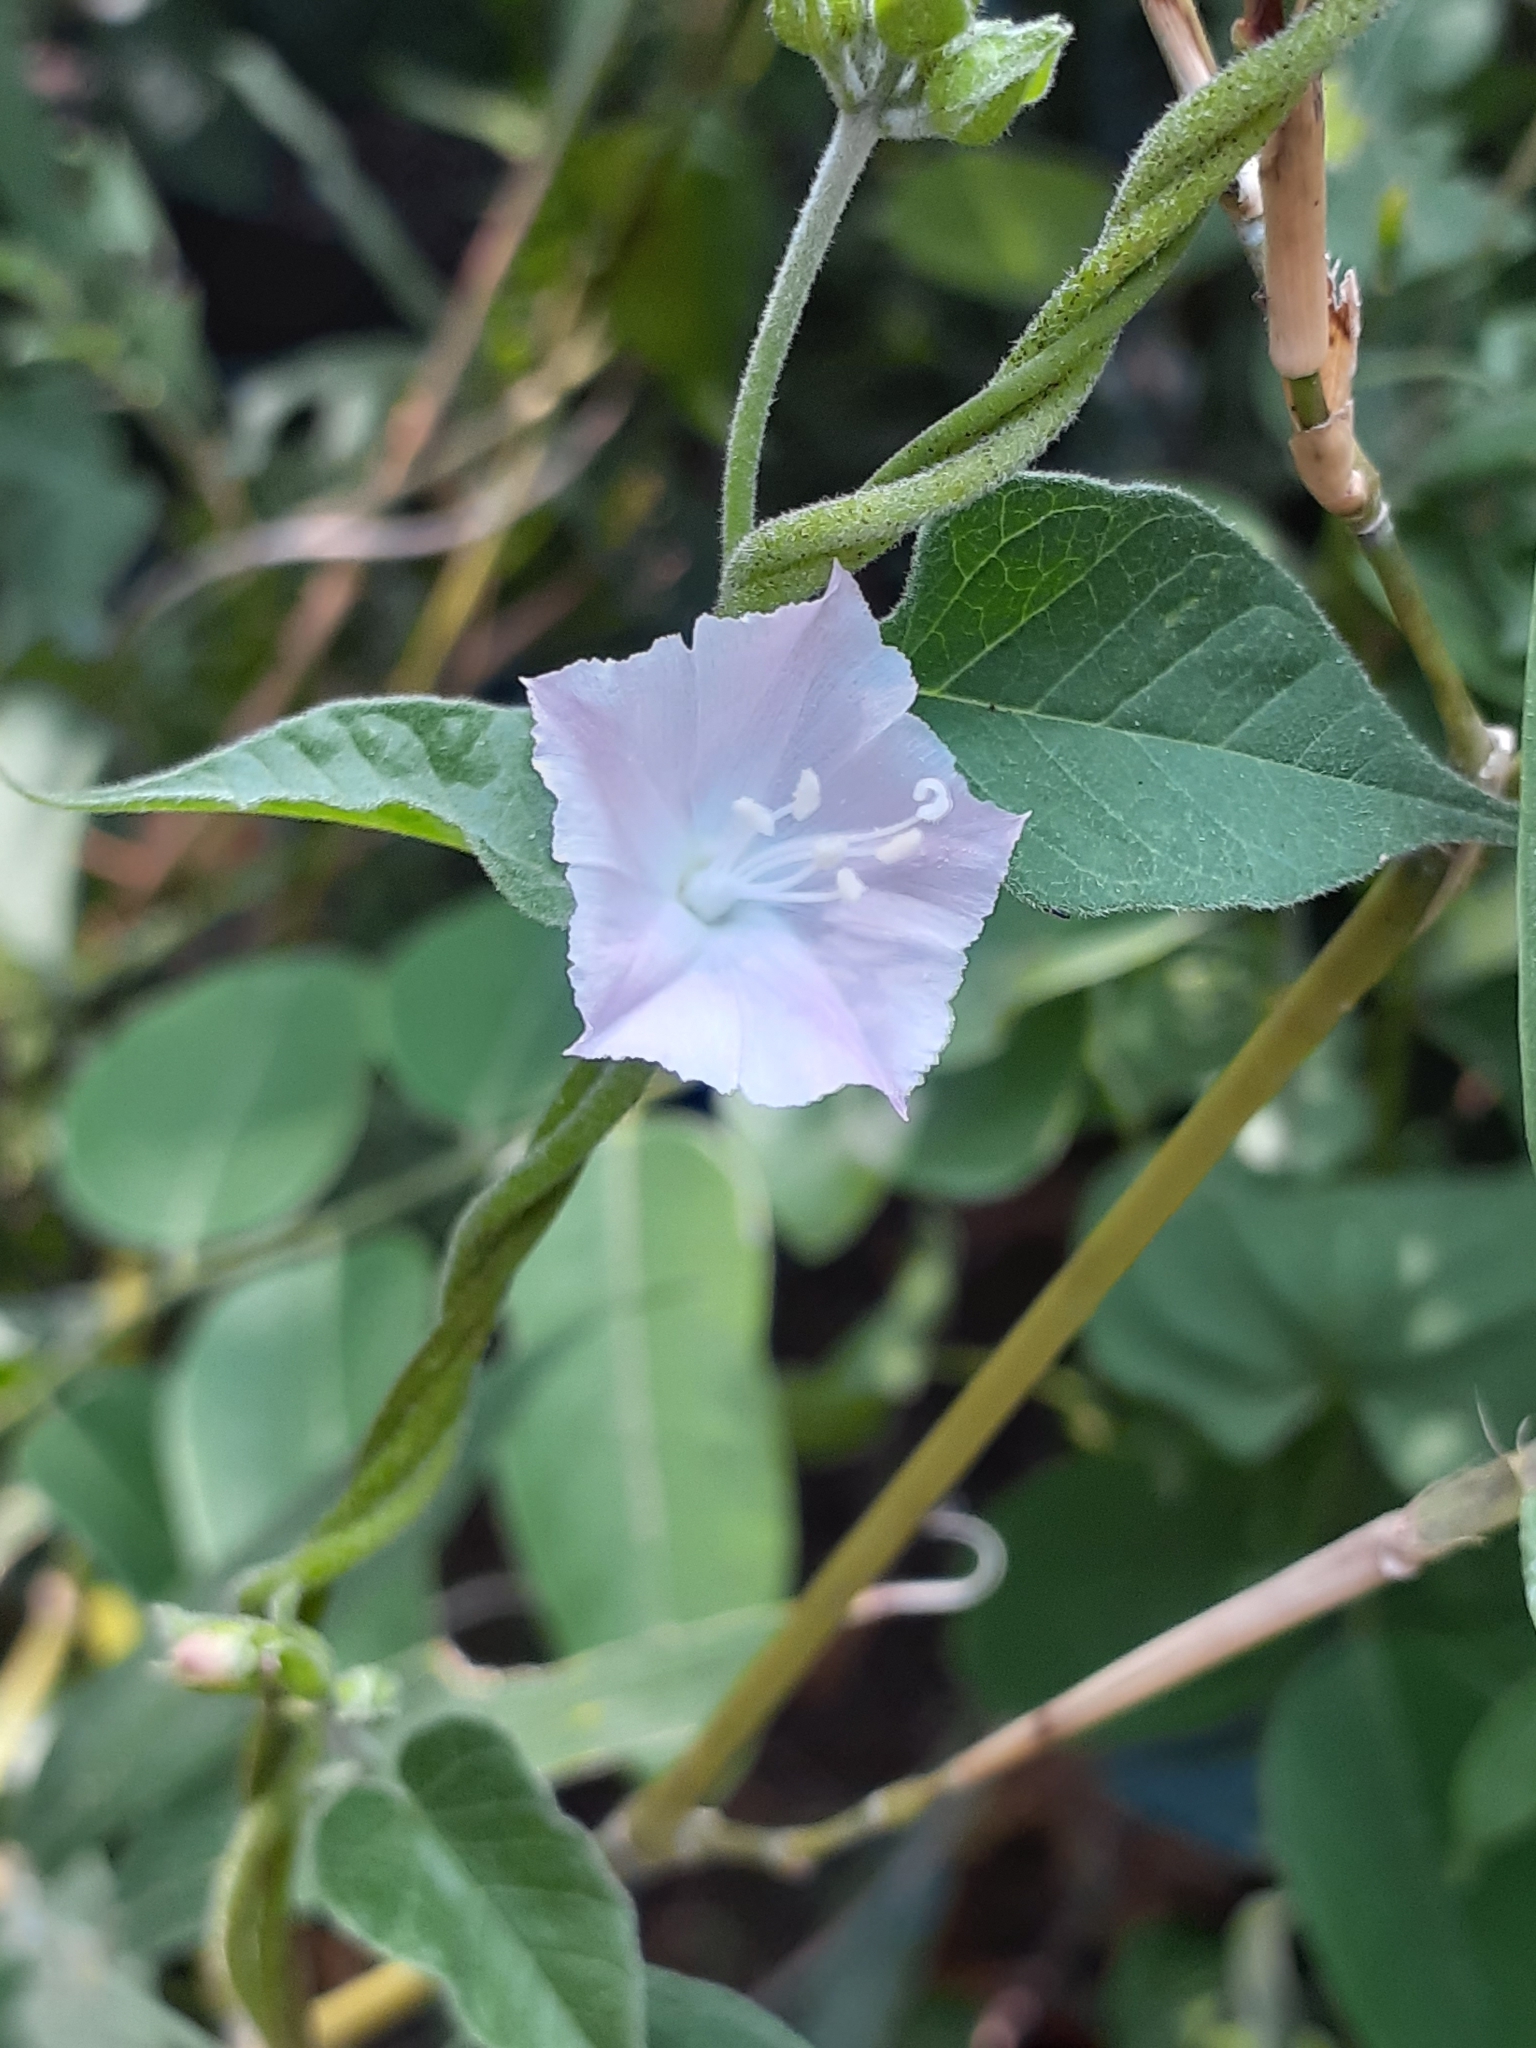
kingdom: Plantae
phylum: Tracheophyta
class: Magnoliopsida
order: Solanales
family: Convolvulaceae
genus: Jacquemontia
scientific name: Jacquemontia paniculata
